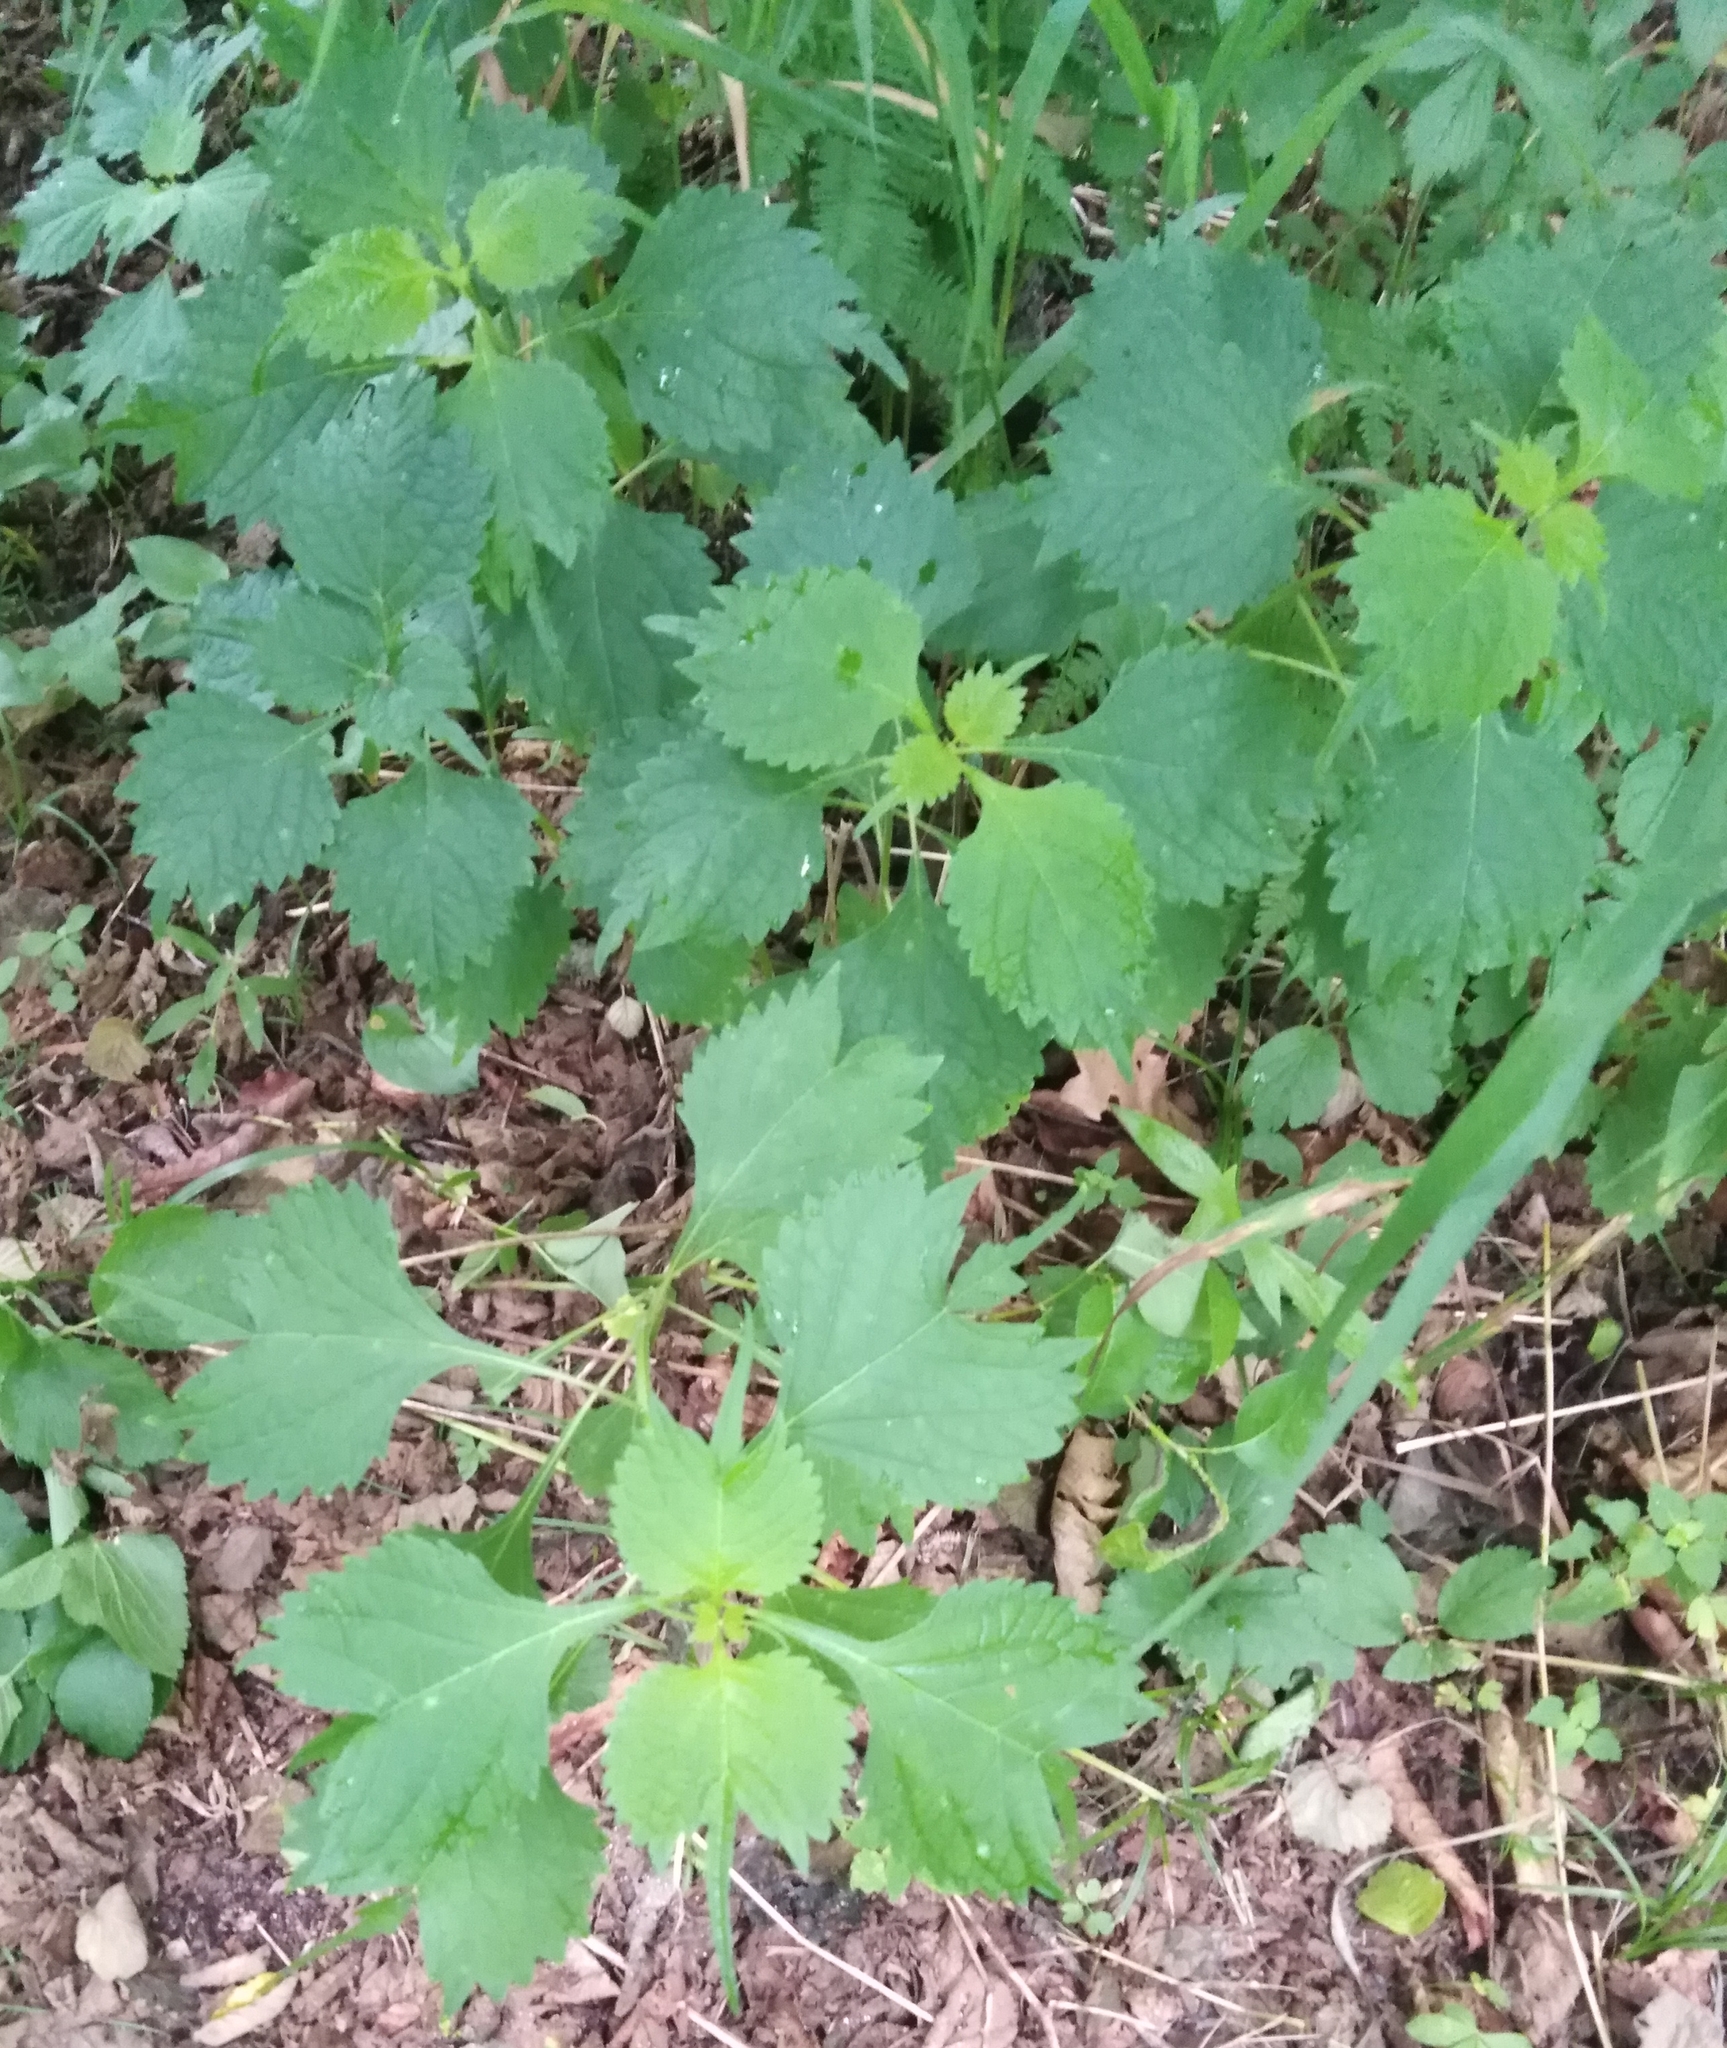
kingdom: Plantae
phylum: Tracheophyta
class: Magnoliopsida
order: Lamiales
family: Lamiaceae
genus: Isodon
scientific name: Isodon excisus
